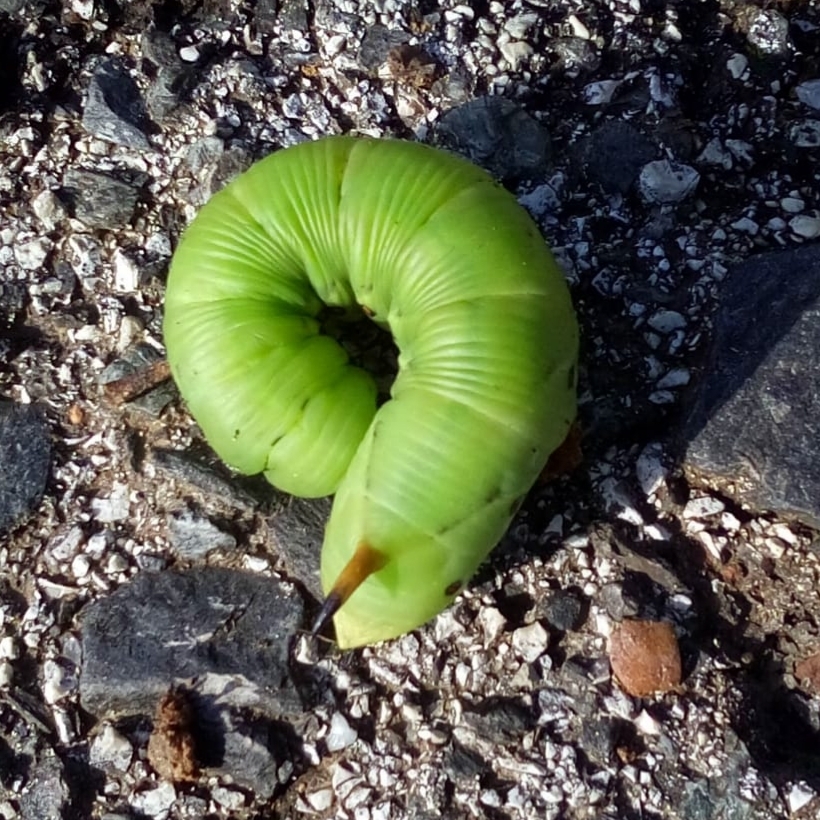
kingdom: Animalia
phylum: Arthropoda
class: Insecta
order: Lepidoptera
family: Sphingidae
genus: Agrius
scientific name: Agrius convolvuli
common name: Convolvulus hawkmoth
